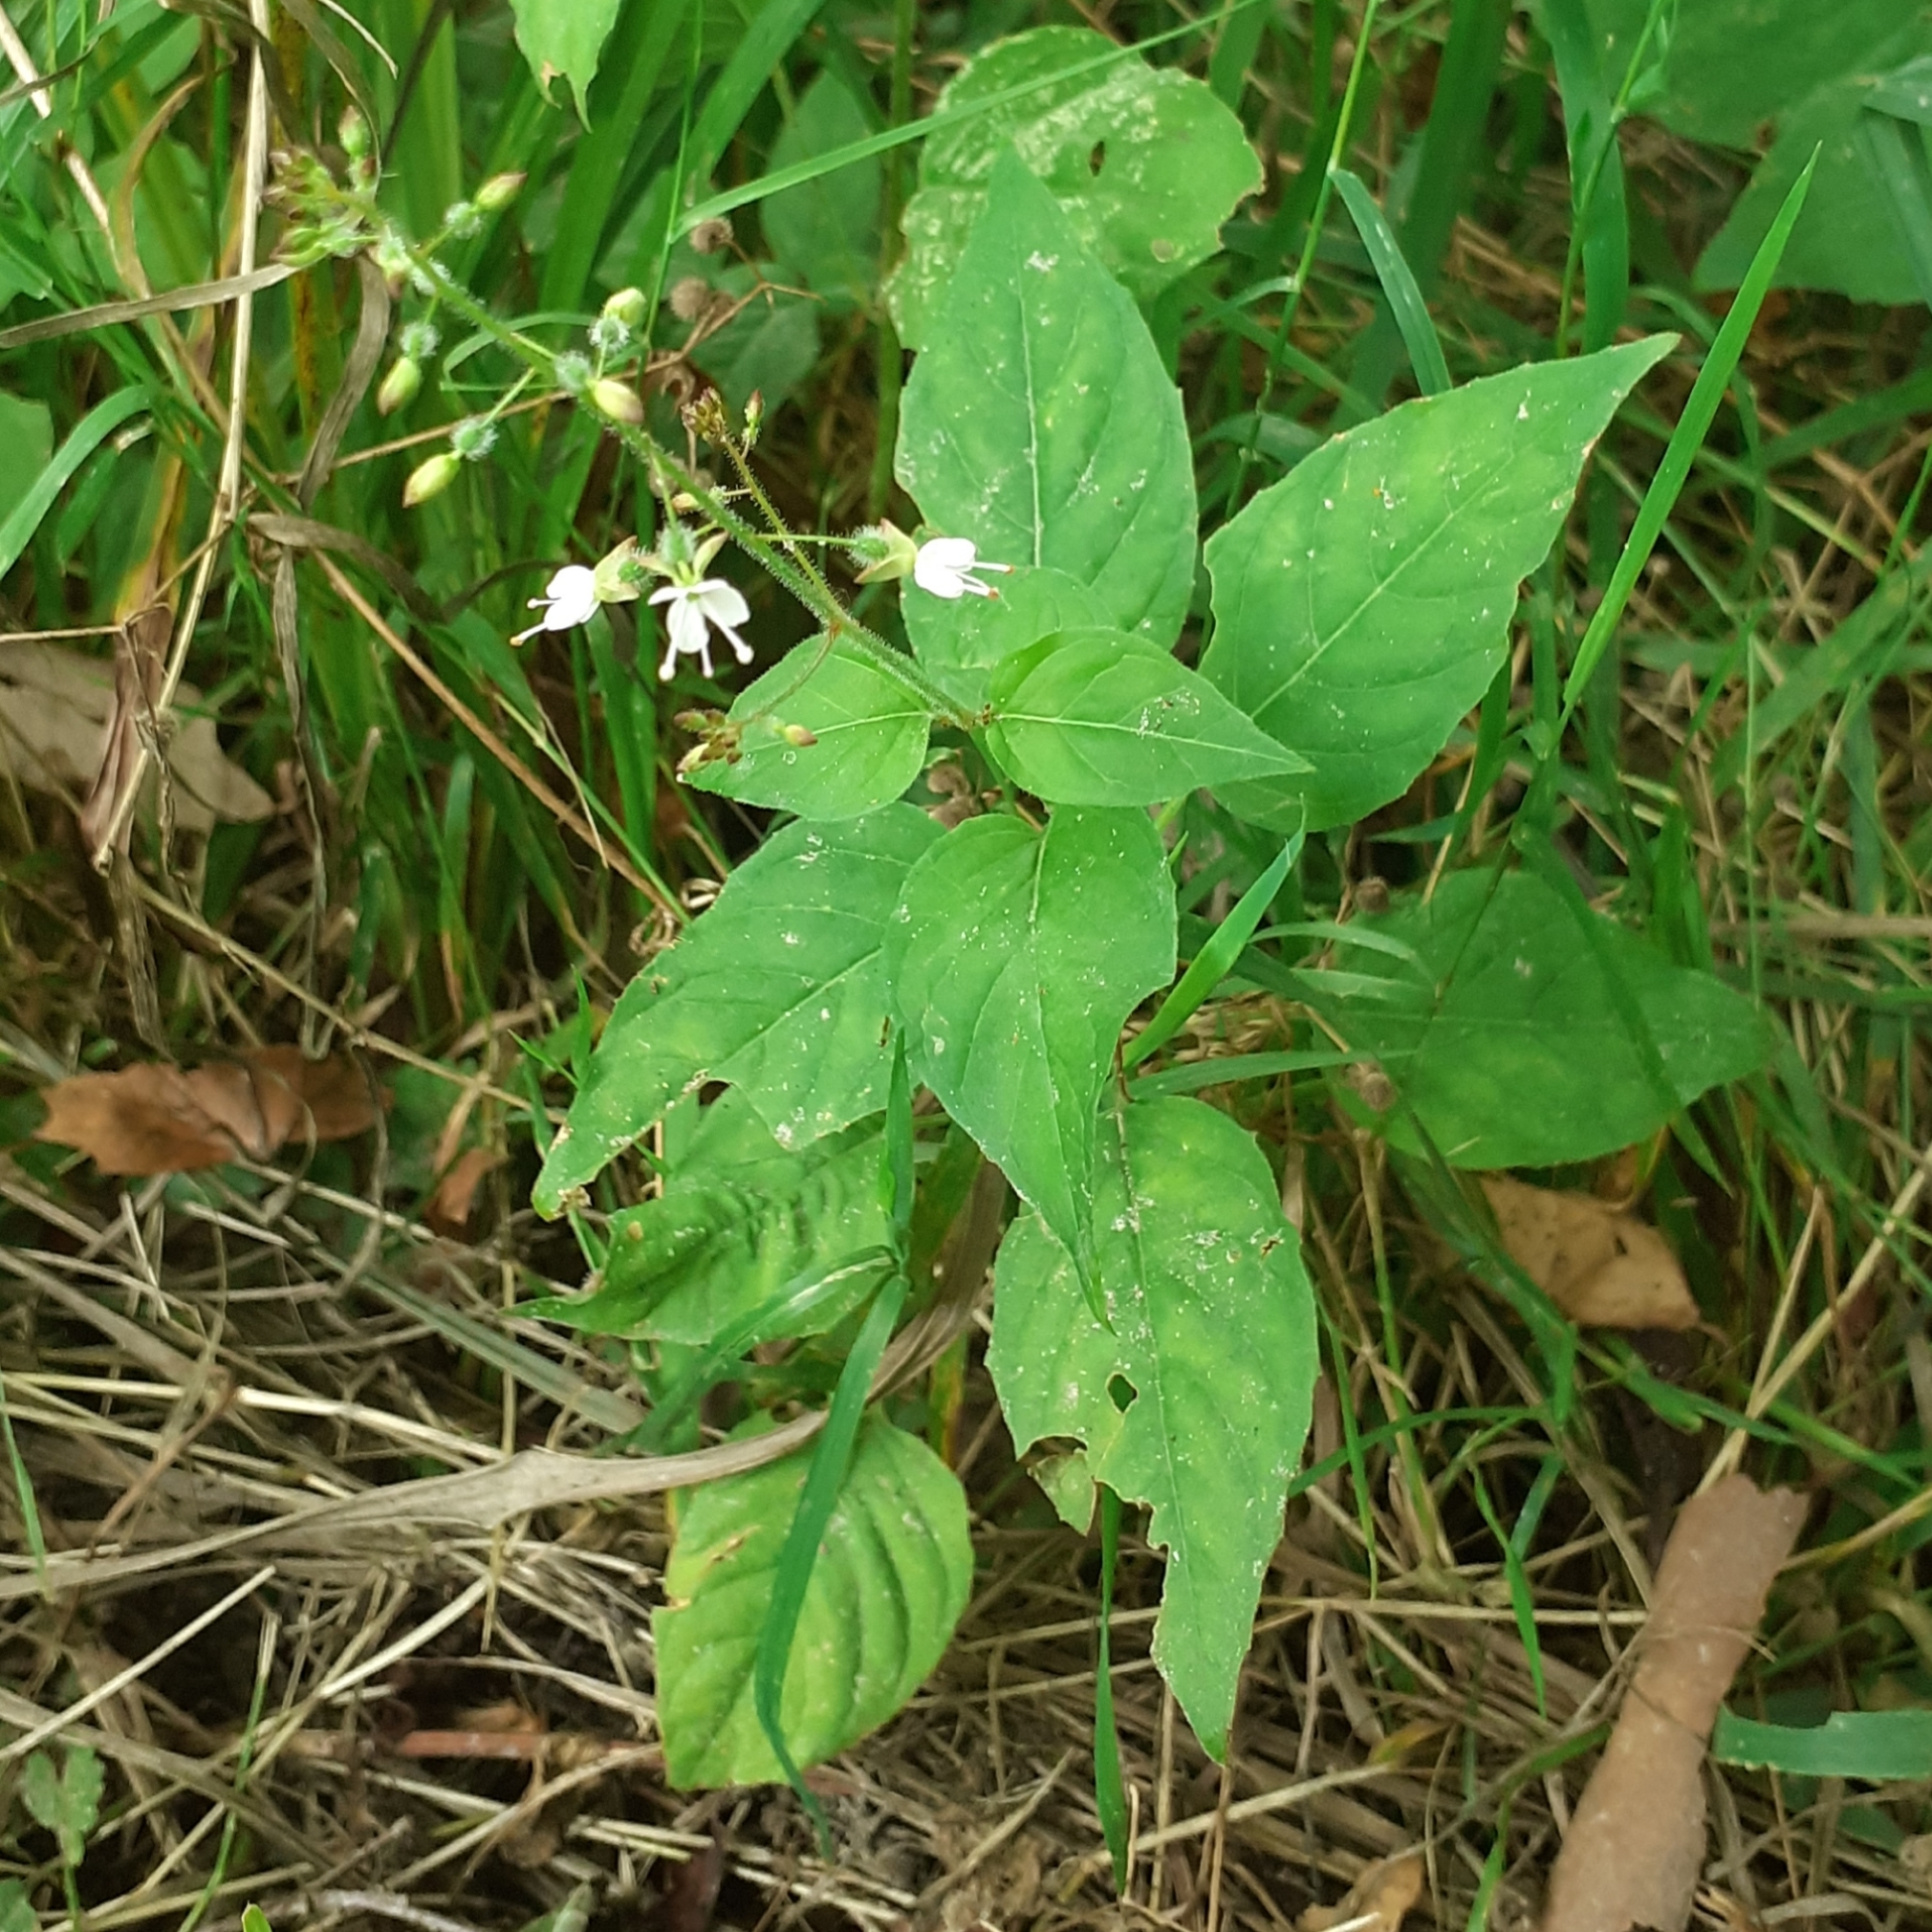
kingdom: Plantae
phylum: Tracheophyta
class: Magnoliopsida
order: Myrtales
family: Onagraceae
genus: Circaea
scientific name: Circaea lutetiana
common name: Enchanter's-nightshade
